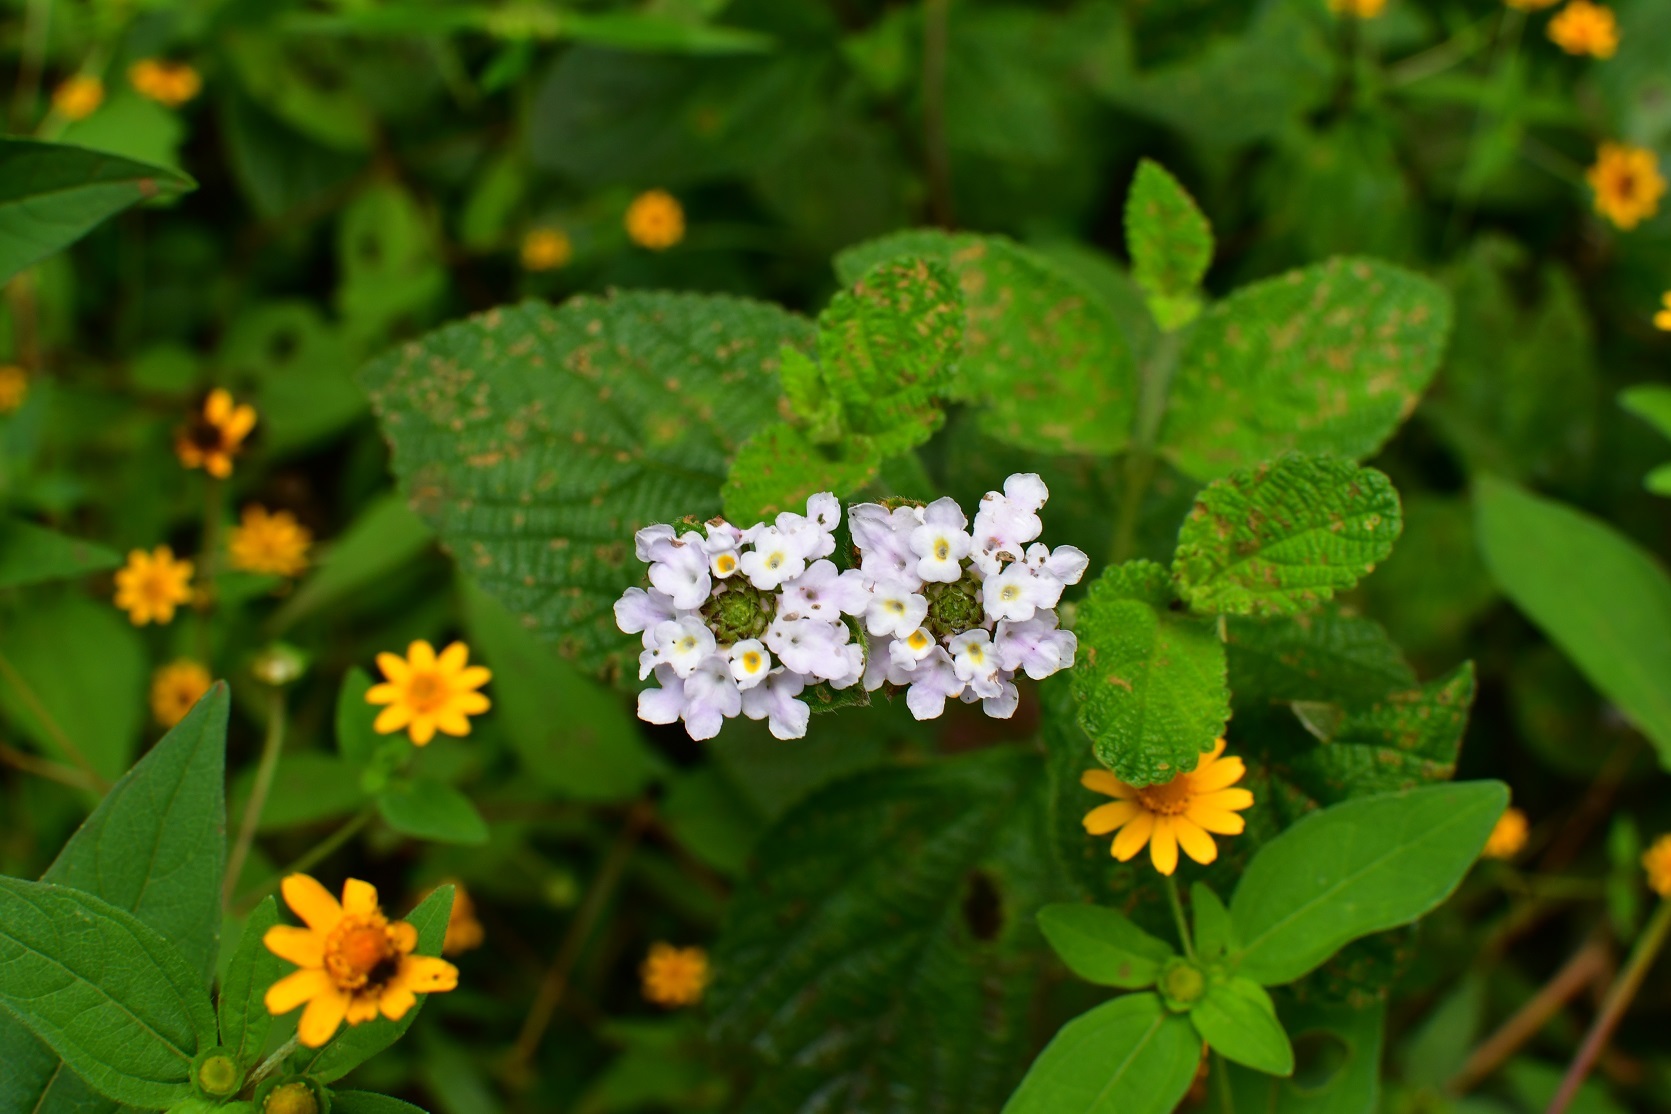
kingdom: Plantae
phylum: Tracheophyta
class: Magnoliopsida
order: Lamiales
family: Verbenaceae
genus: Lantana
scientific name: Lantana velutina
